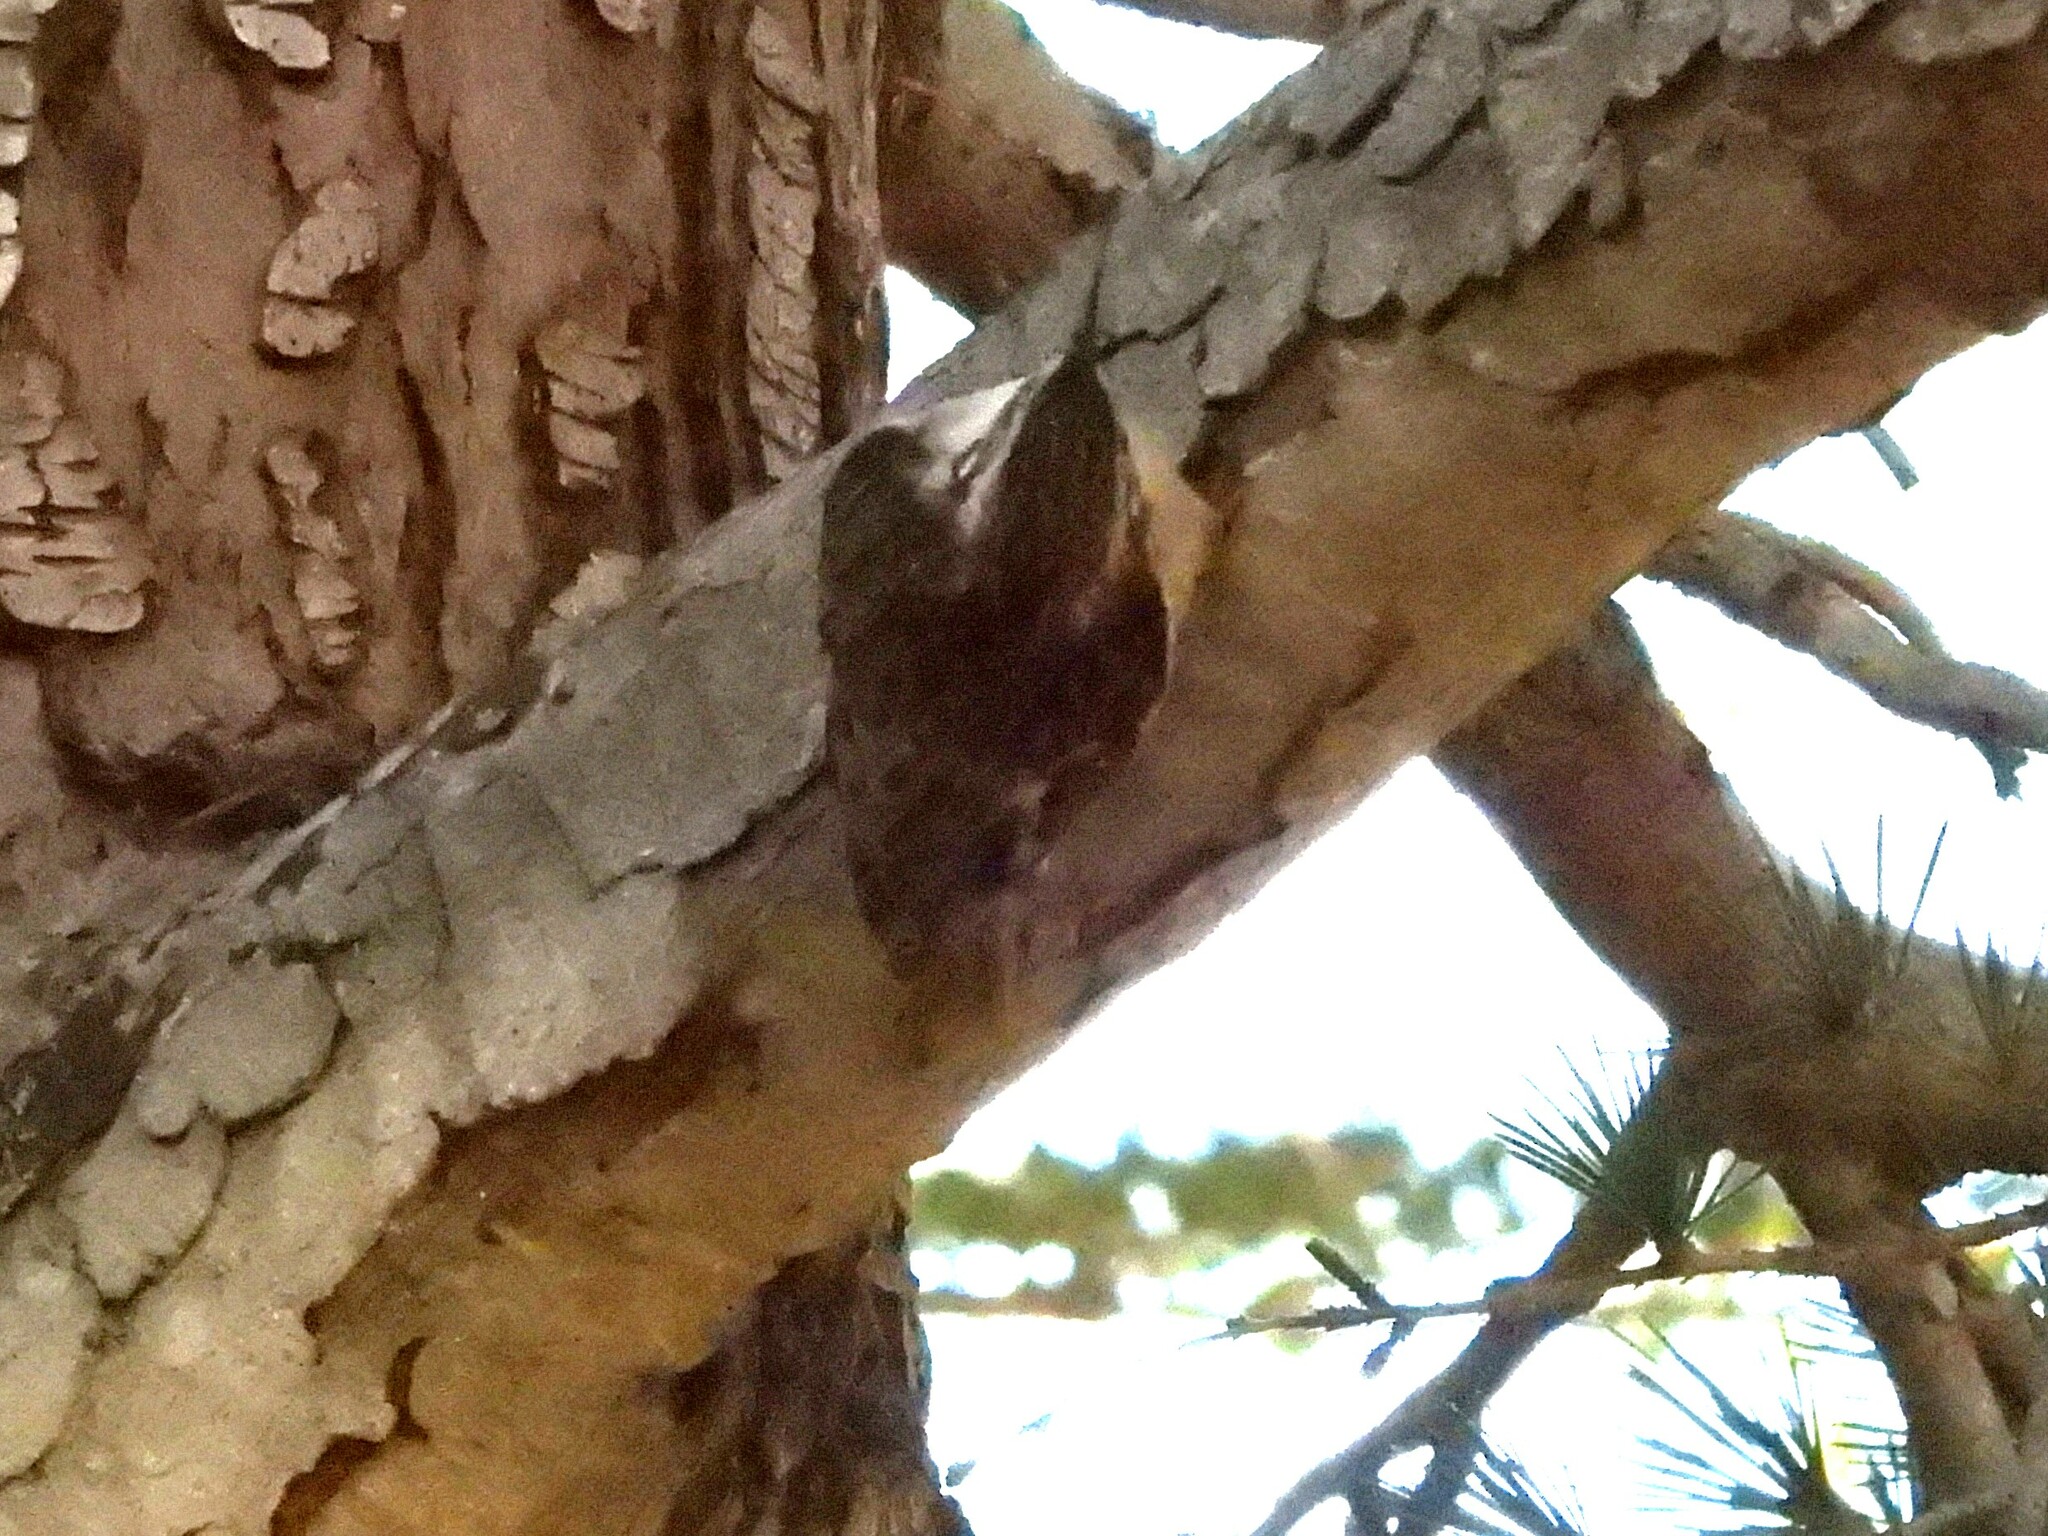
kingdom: Animalia
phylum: Chordata
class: Aves
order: Passeriformes
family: Certhiidae
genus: Certhia
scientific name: Certhia americana
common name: Brown creeper
